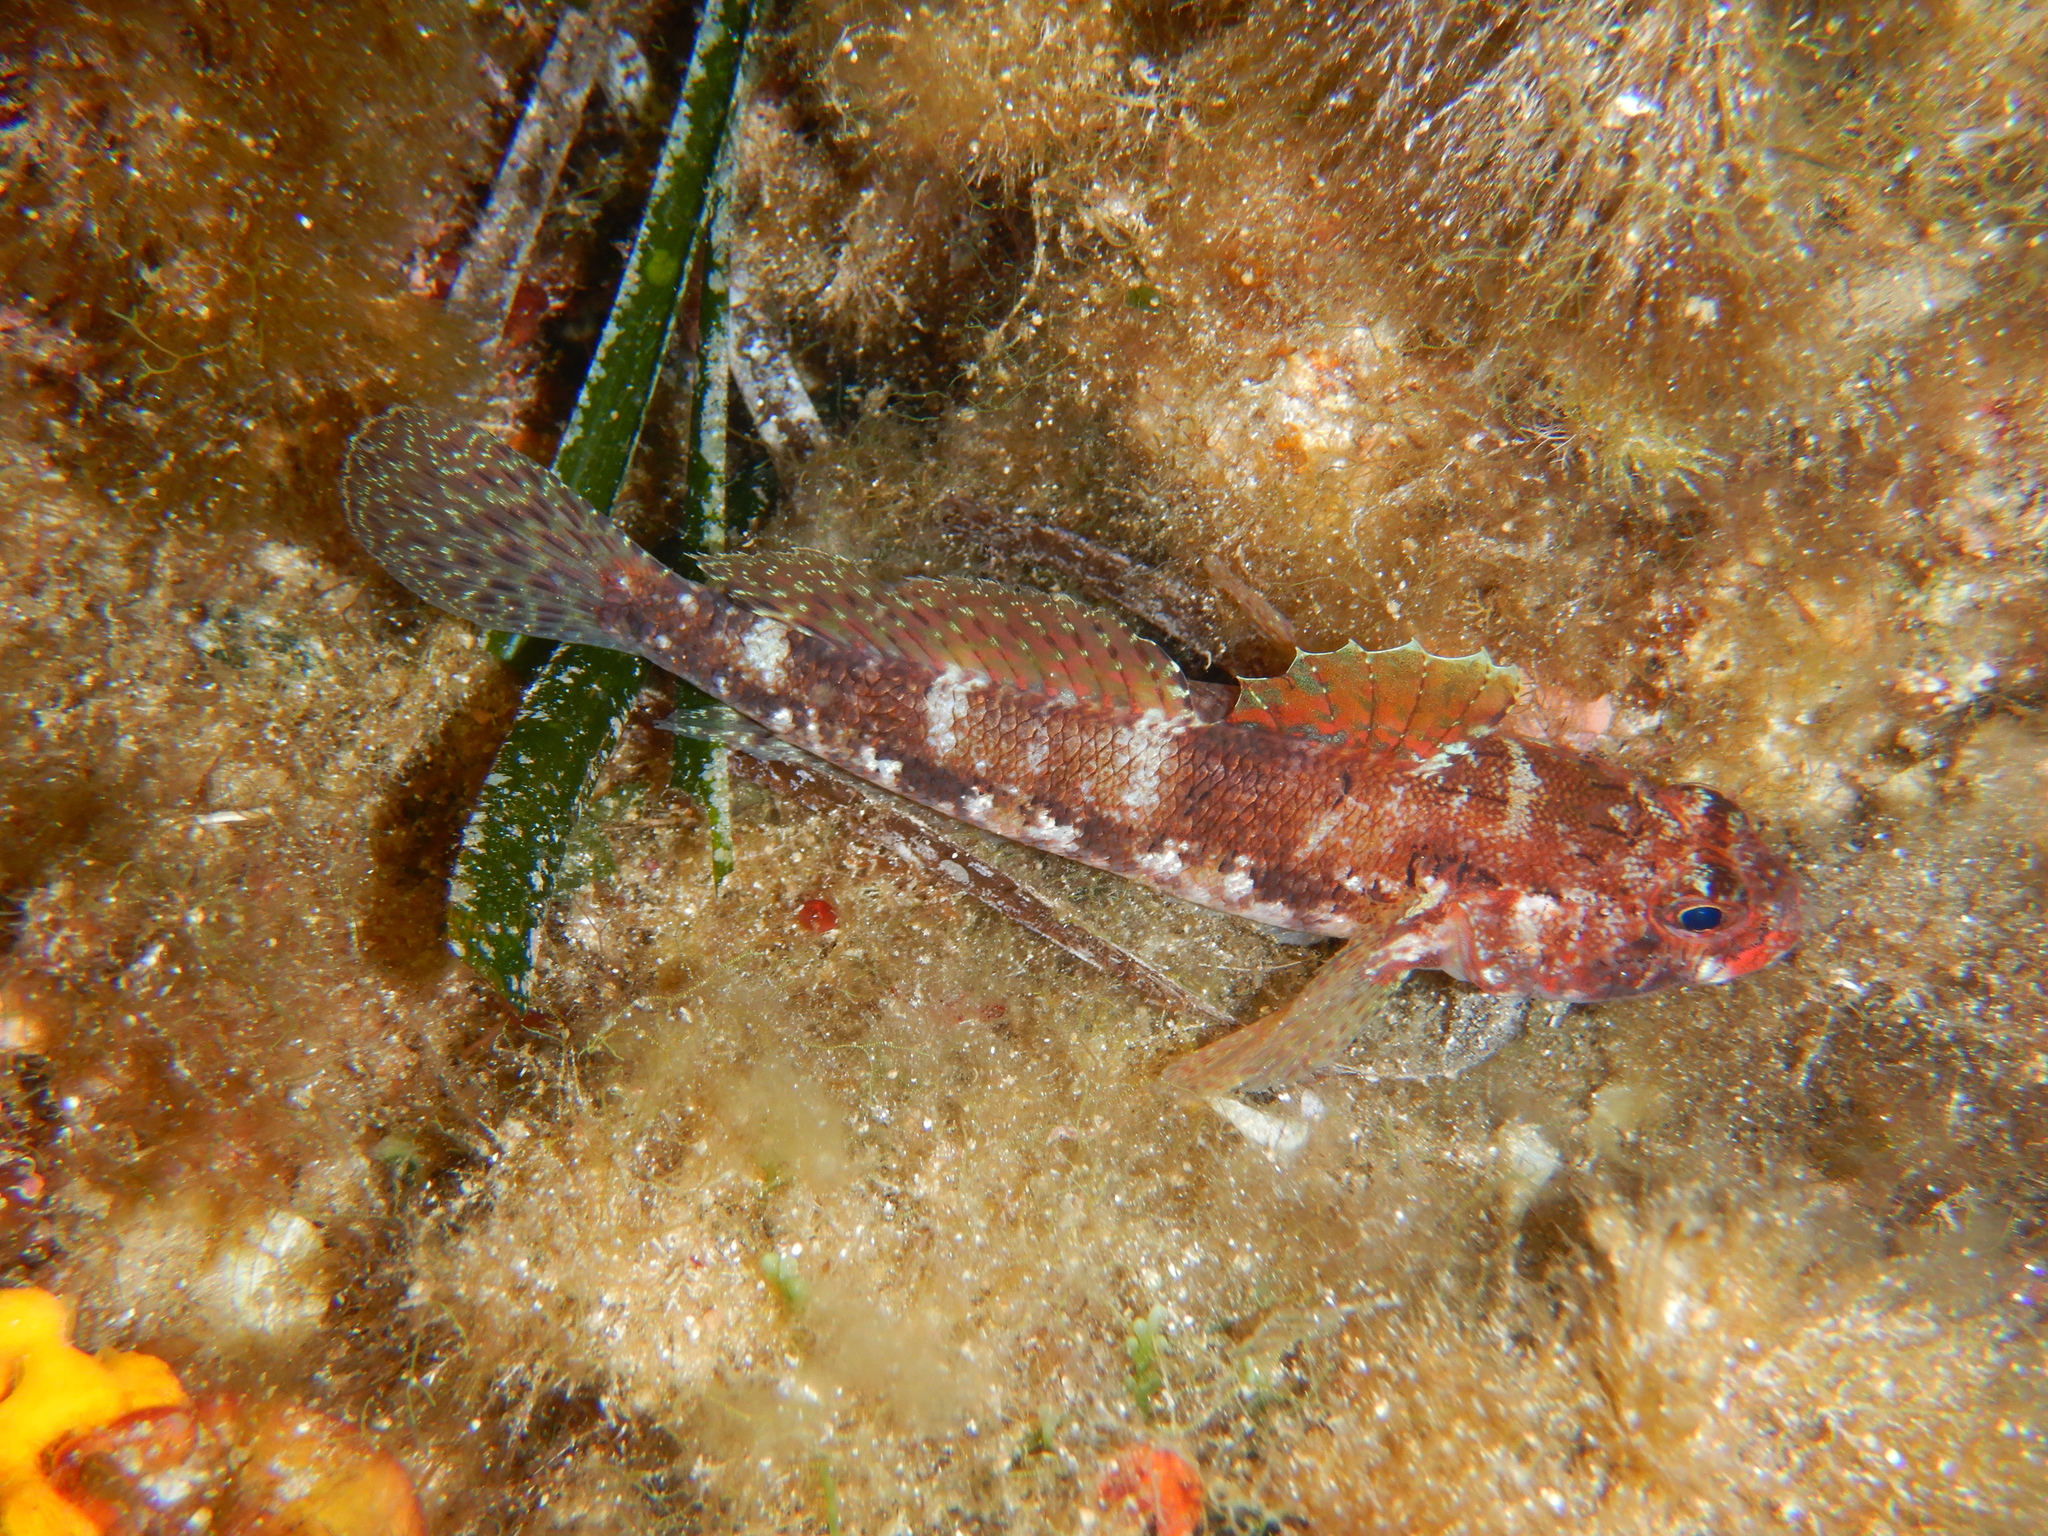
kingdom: Animalia
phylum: Chordata
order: Perciformes
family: Gobiidae
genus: Gobius
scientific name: Gobius cruentatus
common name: Red-mouthed goby
